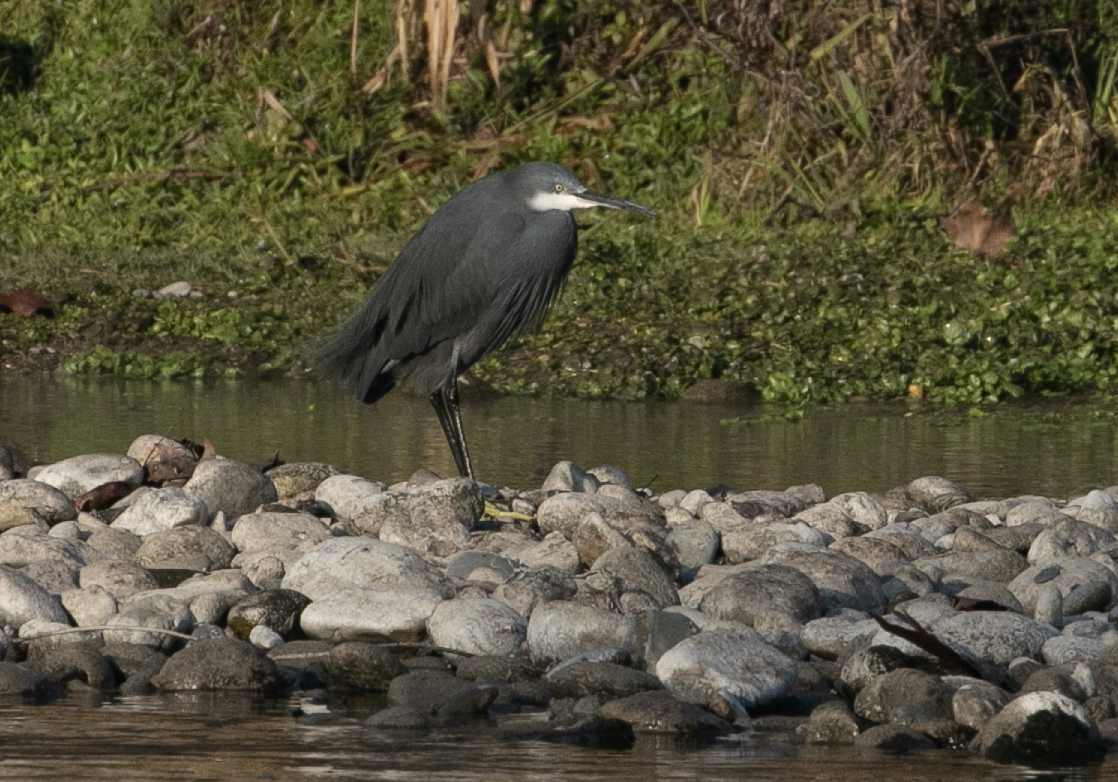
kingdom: Animalia
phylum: Chordata
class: Aves
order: Pelecaniformes
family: Ardeidae
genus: Egretta
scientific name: Egretta gularis
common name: Western reef-heron
